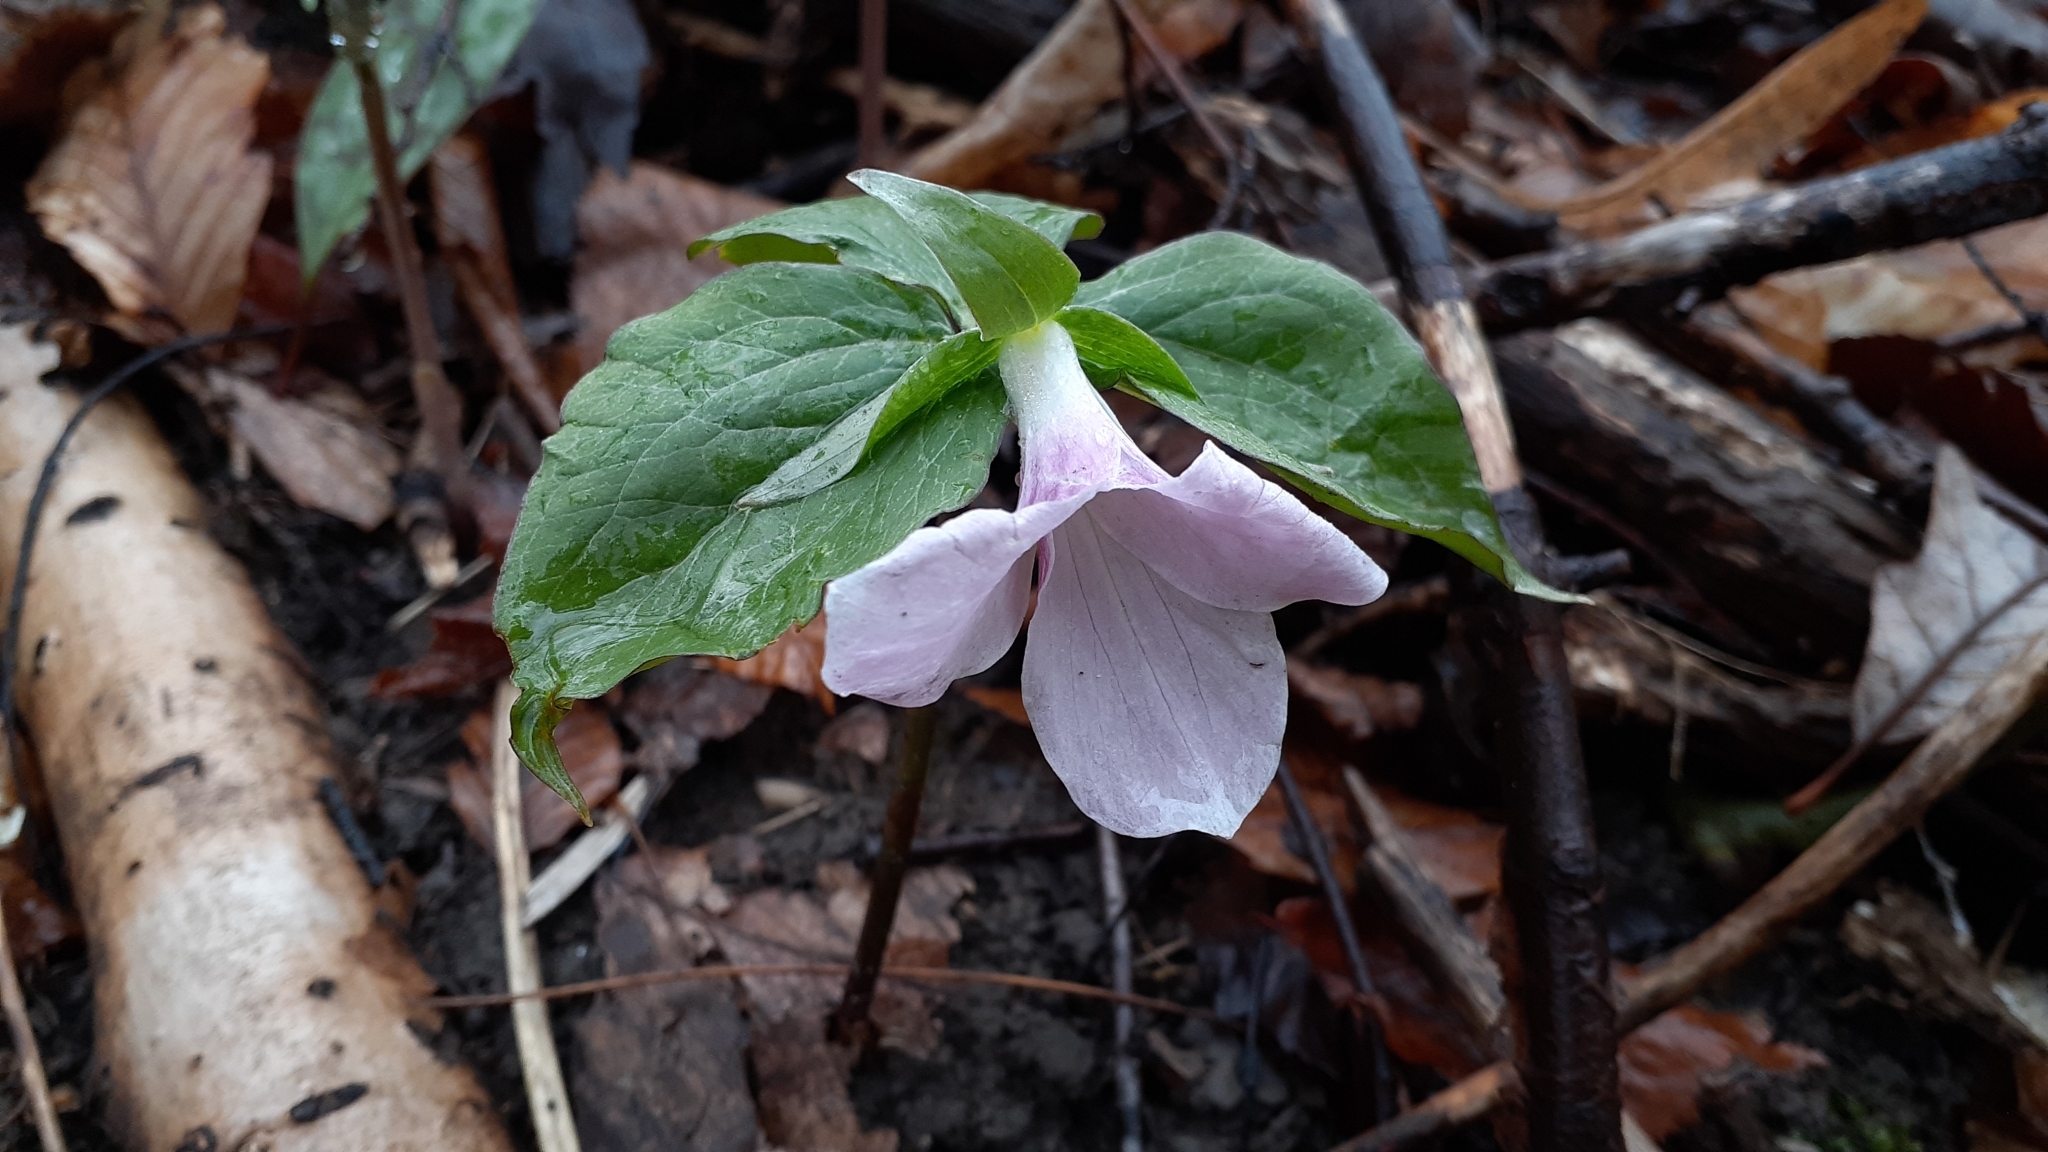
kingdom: Plantae
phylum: Tracheophyta
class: Liliopsida
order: Liliales
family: Melanthiaceae
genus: Trillium
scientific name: Trillium grandiflorum
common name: Great white trillium
